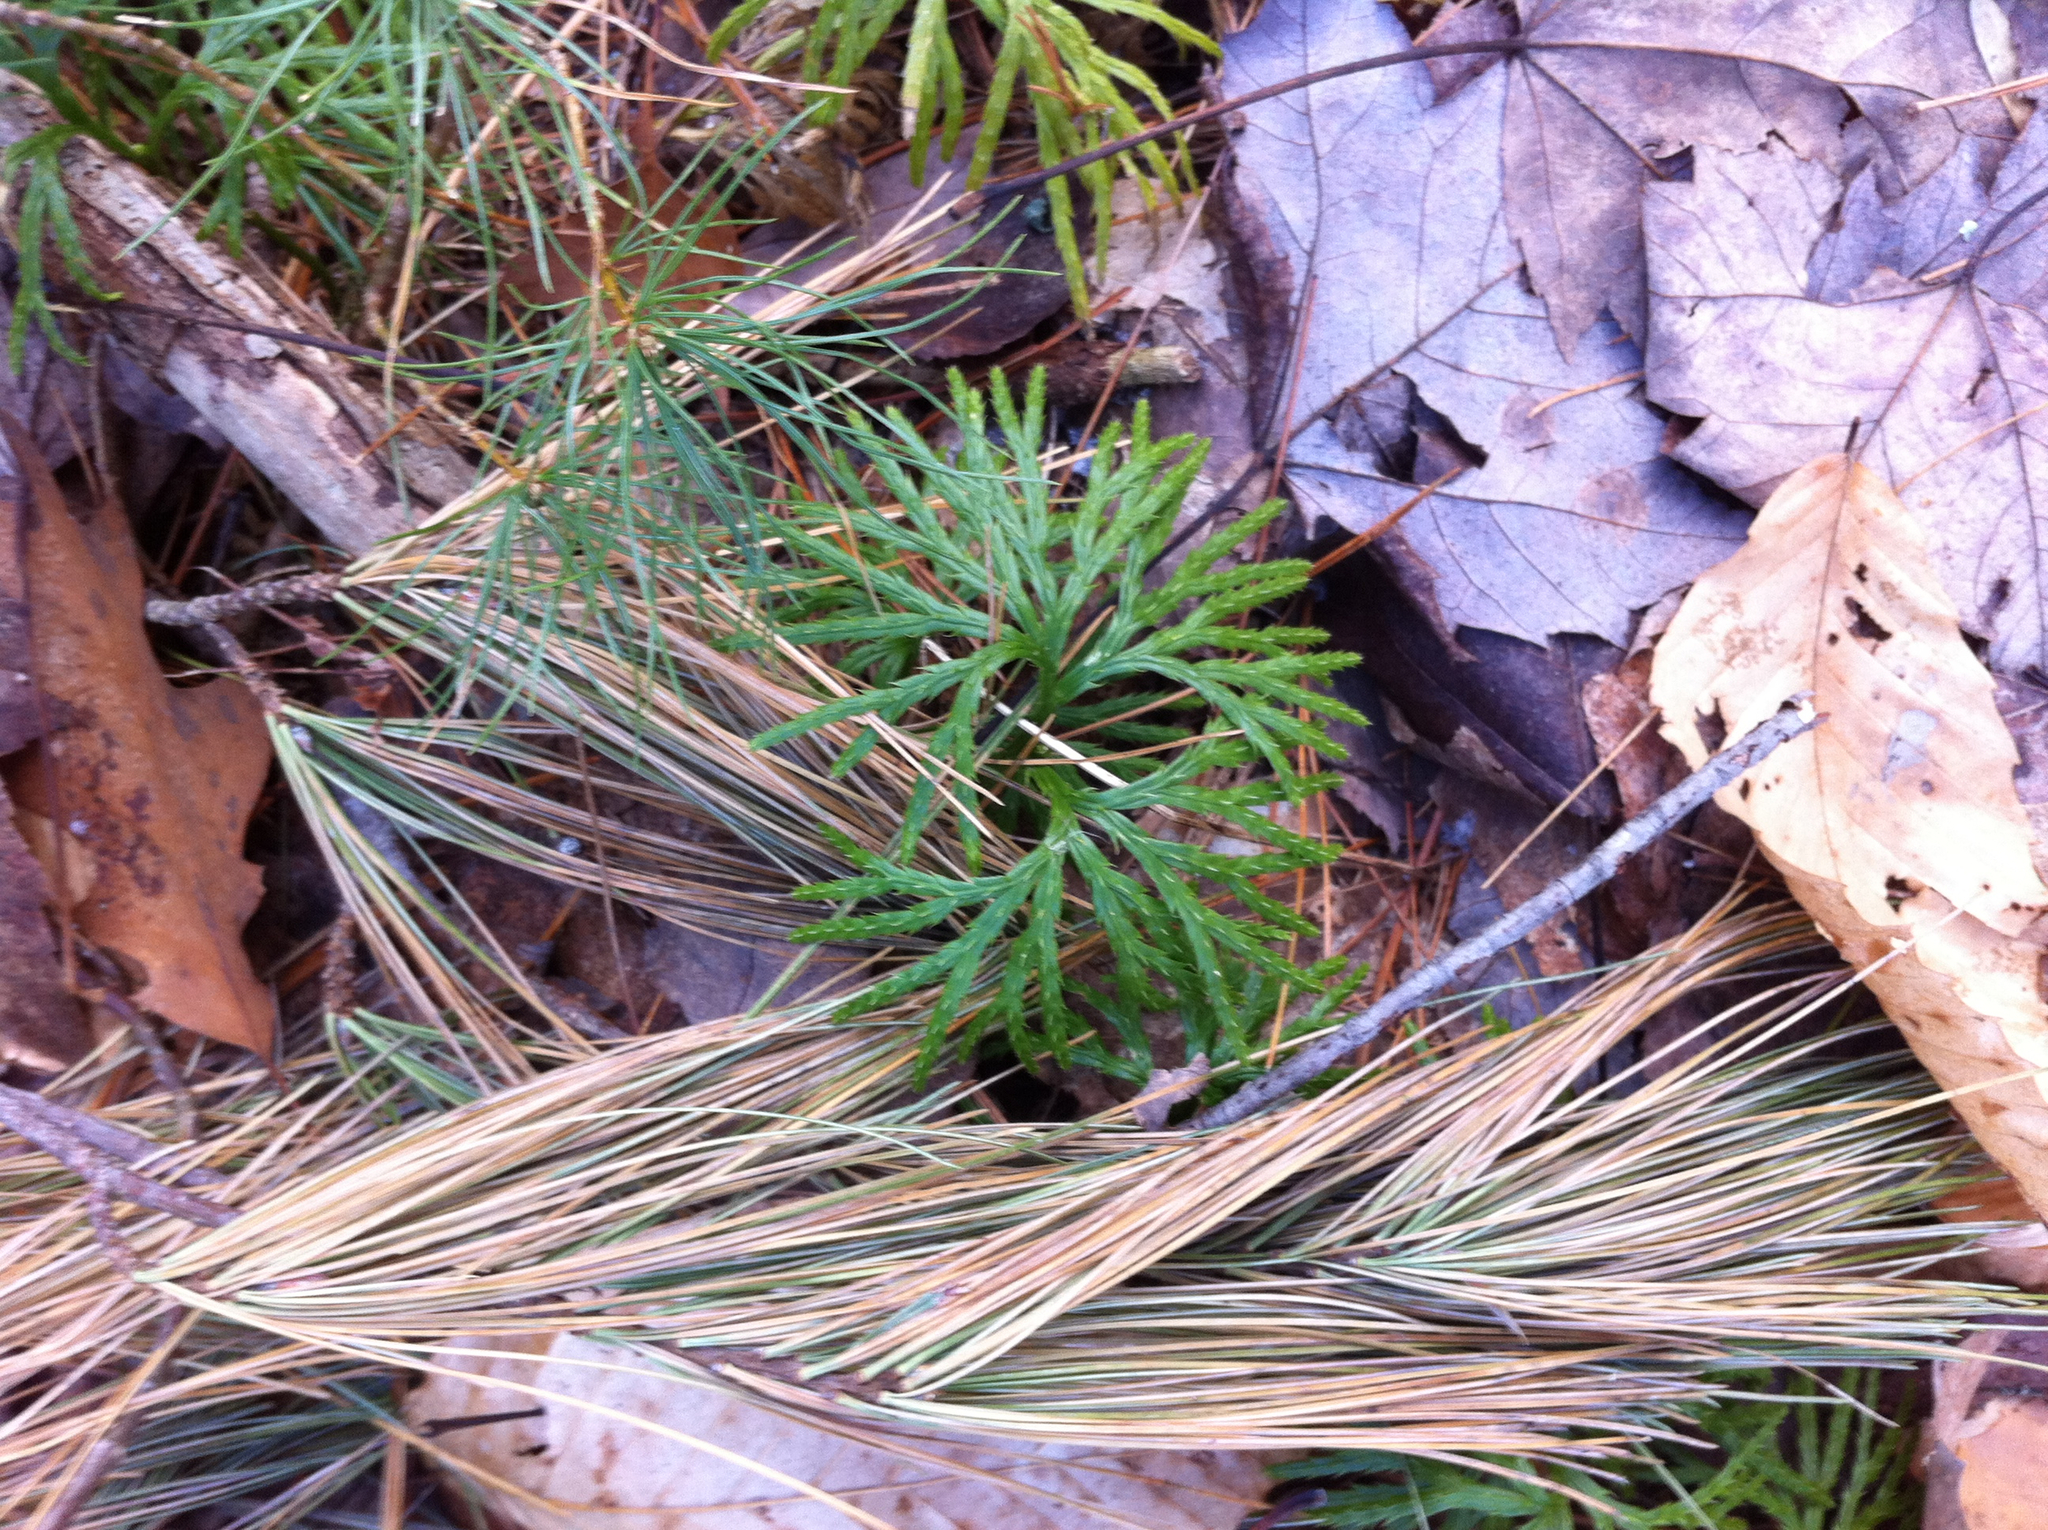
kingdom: Plantae
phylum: Tracheophyta
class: Lycopodiopsida
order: Lycopodiales
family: Lycopodiaceae
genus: Diphasiastrum
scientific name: Diphasiastrum digitatum
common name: Southern running-pine
